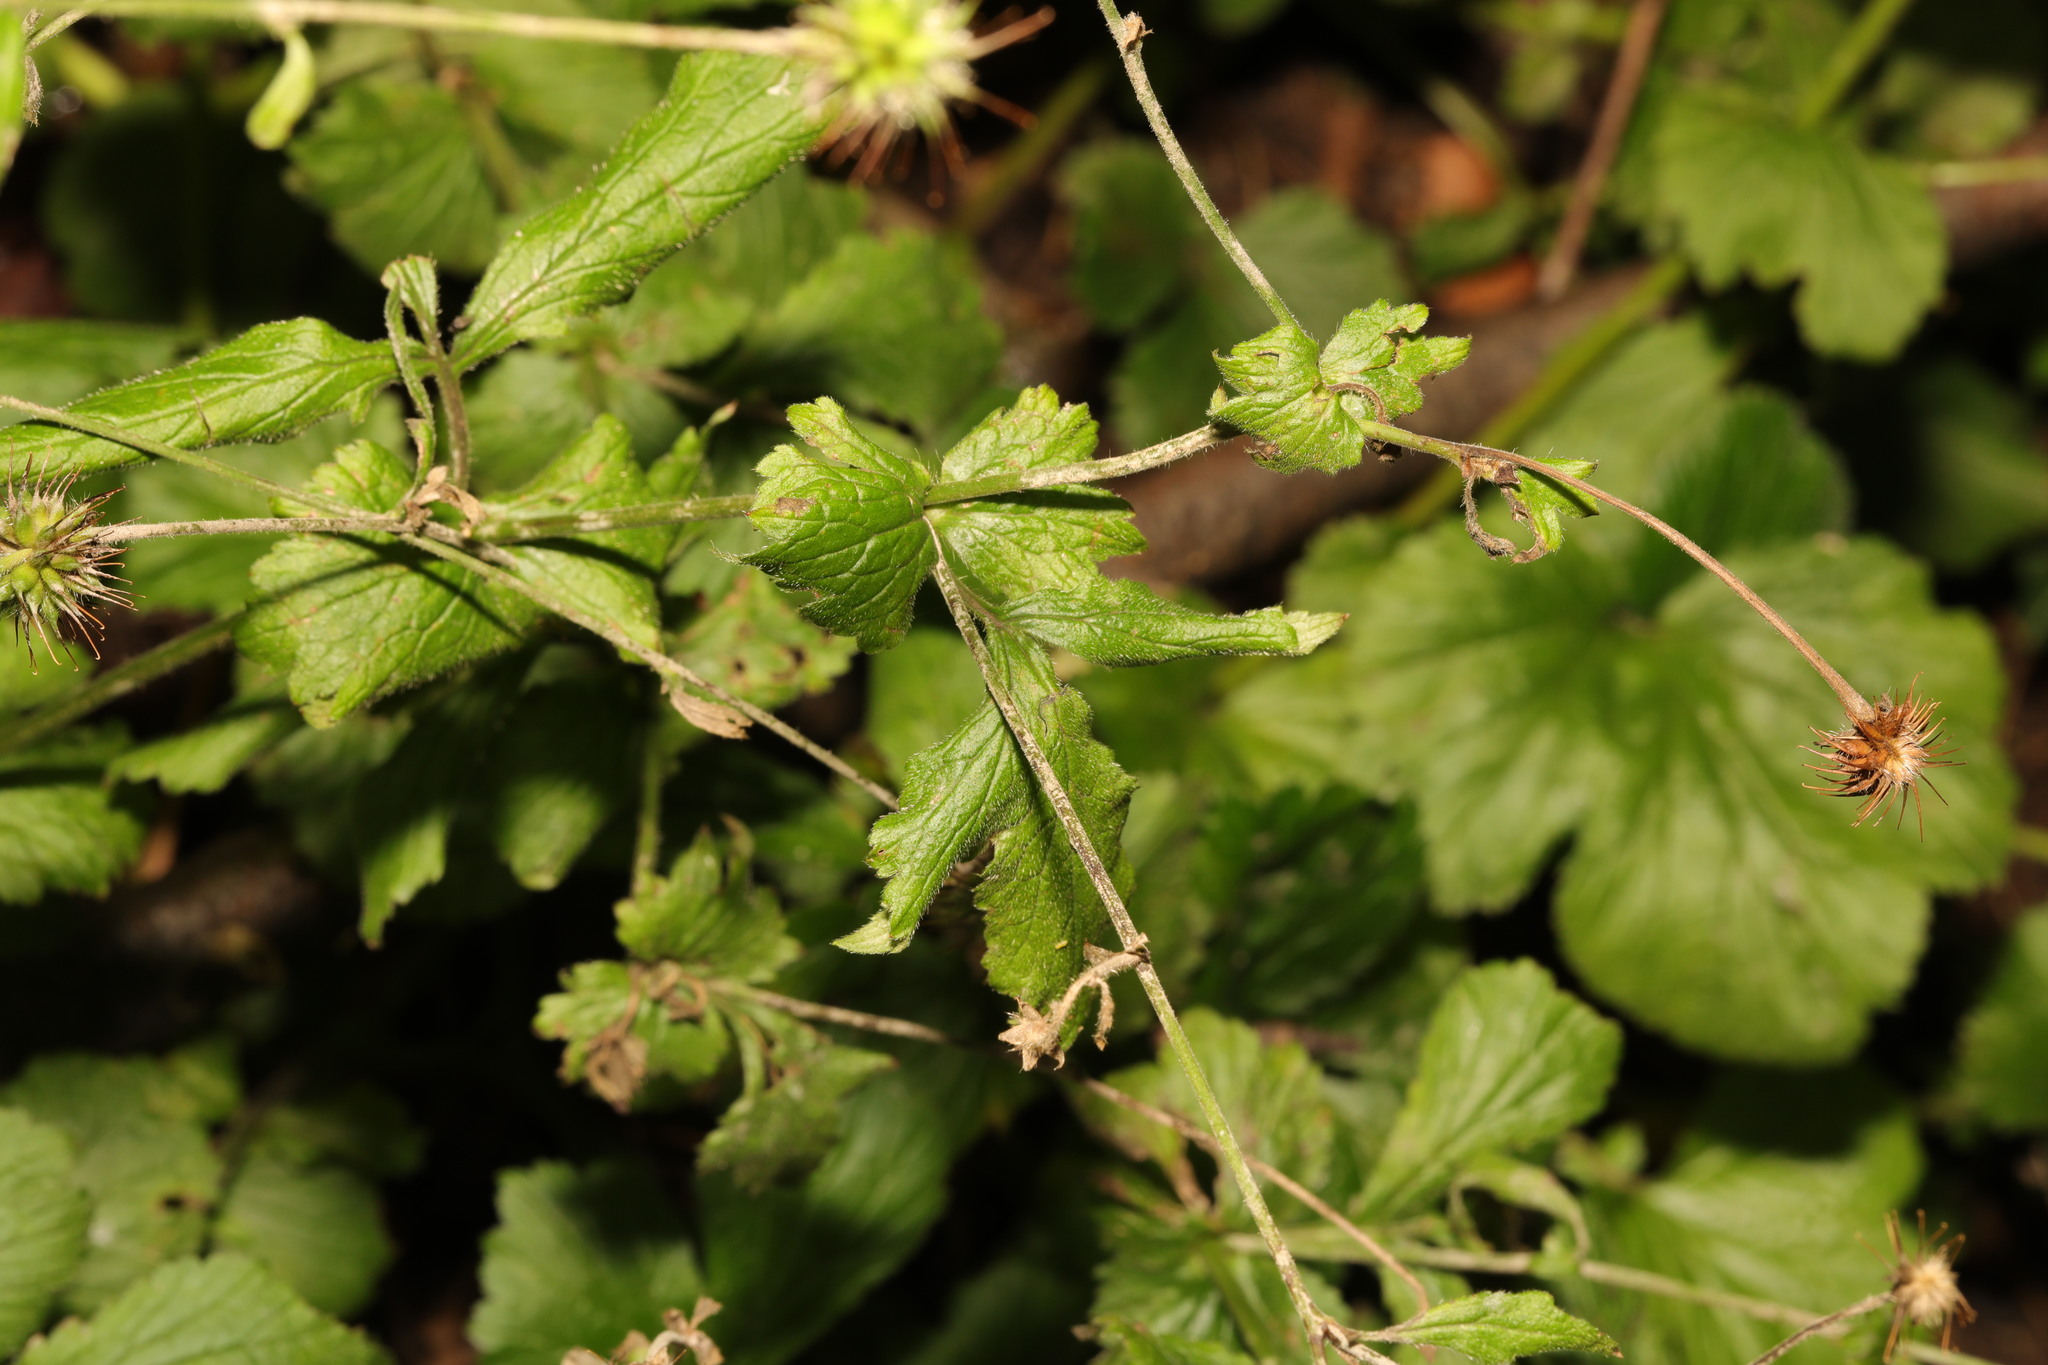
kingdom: Plantae
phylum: Tracheophyta
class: Magnoliopsida
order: Rosales
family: Rosaceae
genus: Geum
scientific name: Geum urbanum
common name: Wood avens
